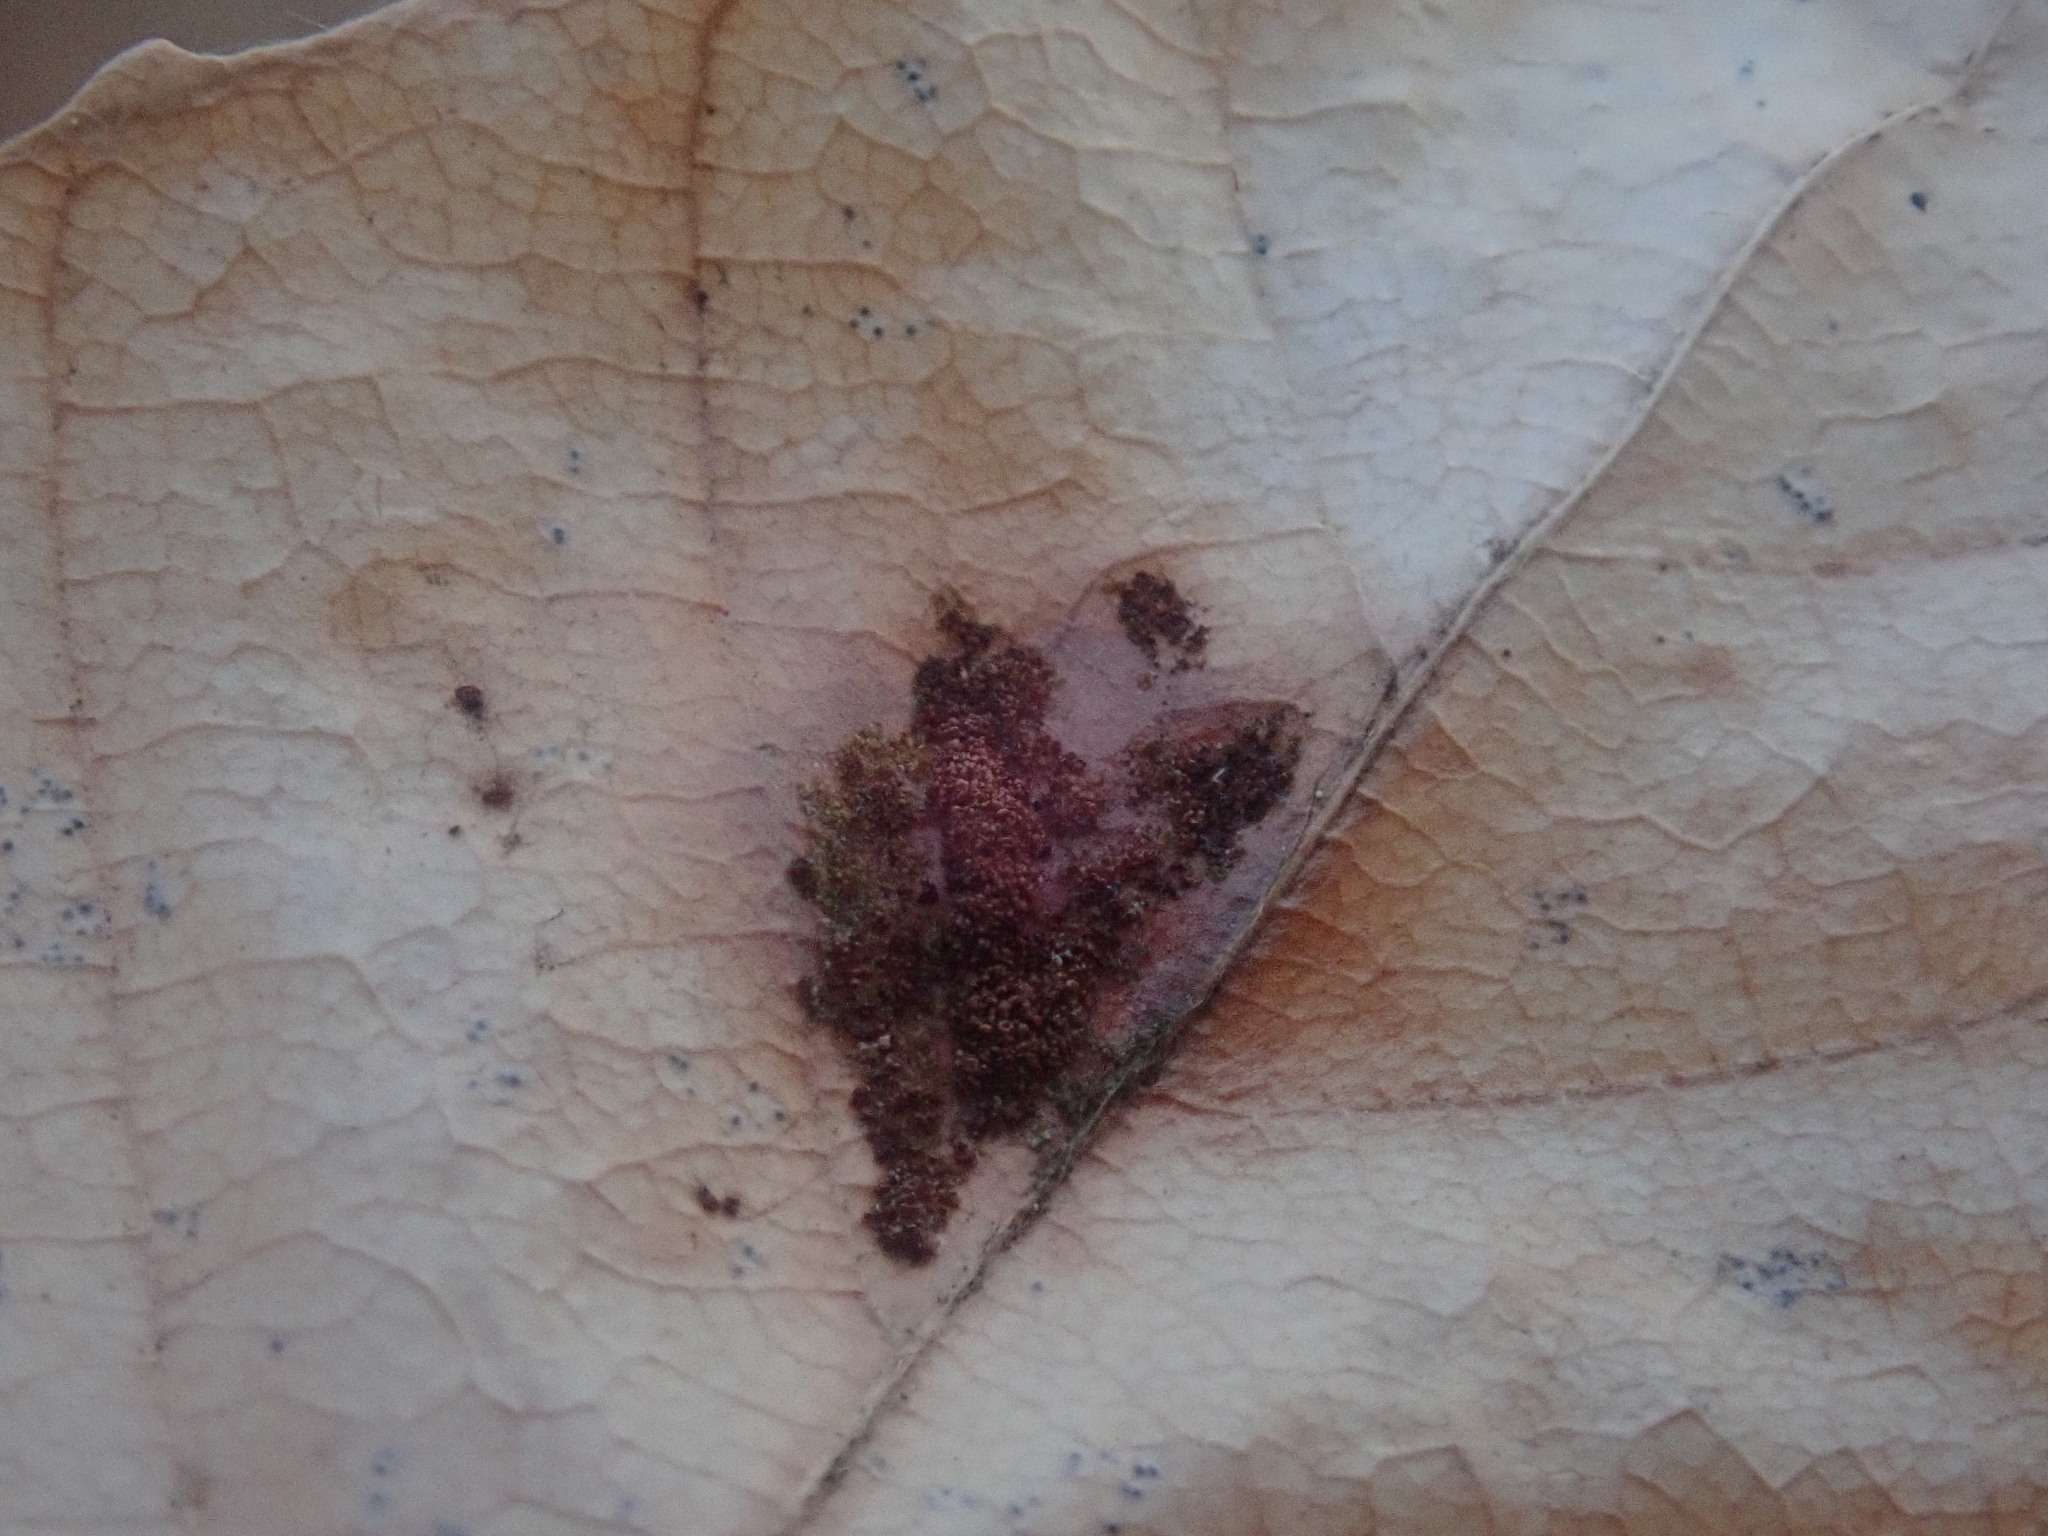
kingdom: Animalia
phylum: Arthropoda
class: Arachnida
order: Trombidiformes
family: Eriophyidae
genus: Acalitus
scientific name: Acalitus
